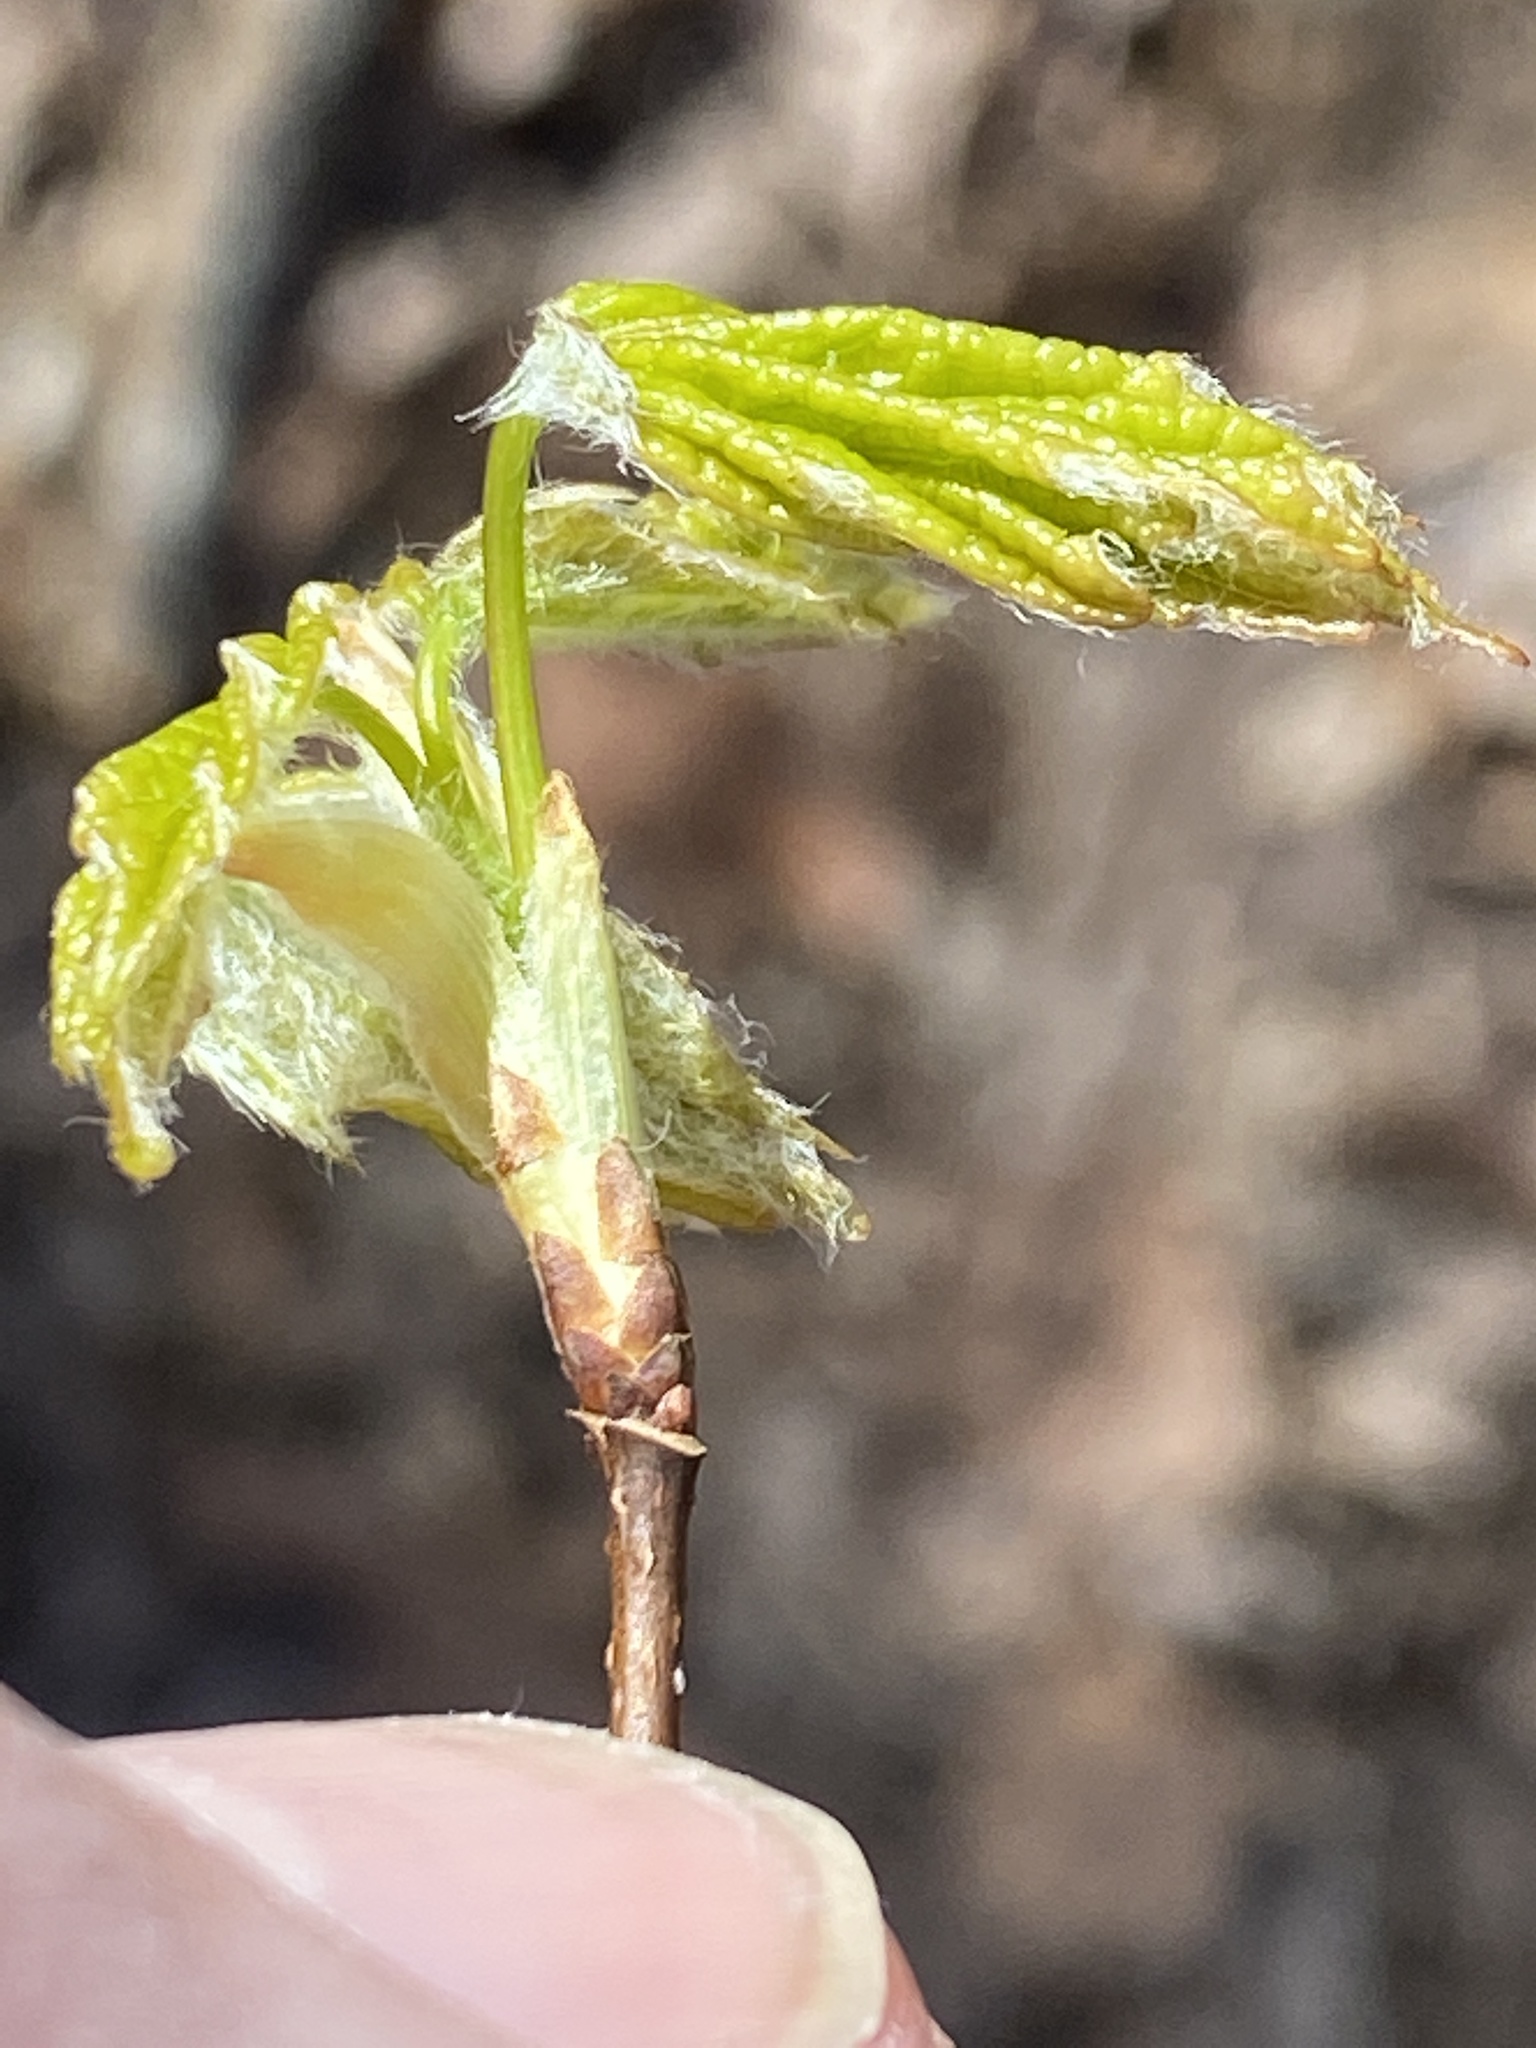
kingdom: Plantae
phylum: Tracheophyta
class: Magnoliopsida
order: Sapindales
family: Sapindaceae
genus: Acer
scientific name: Acer floridanum
